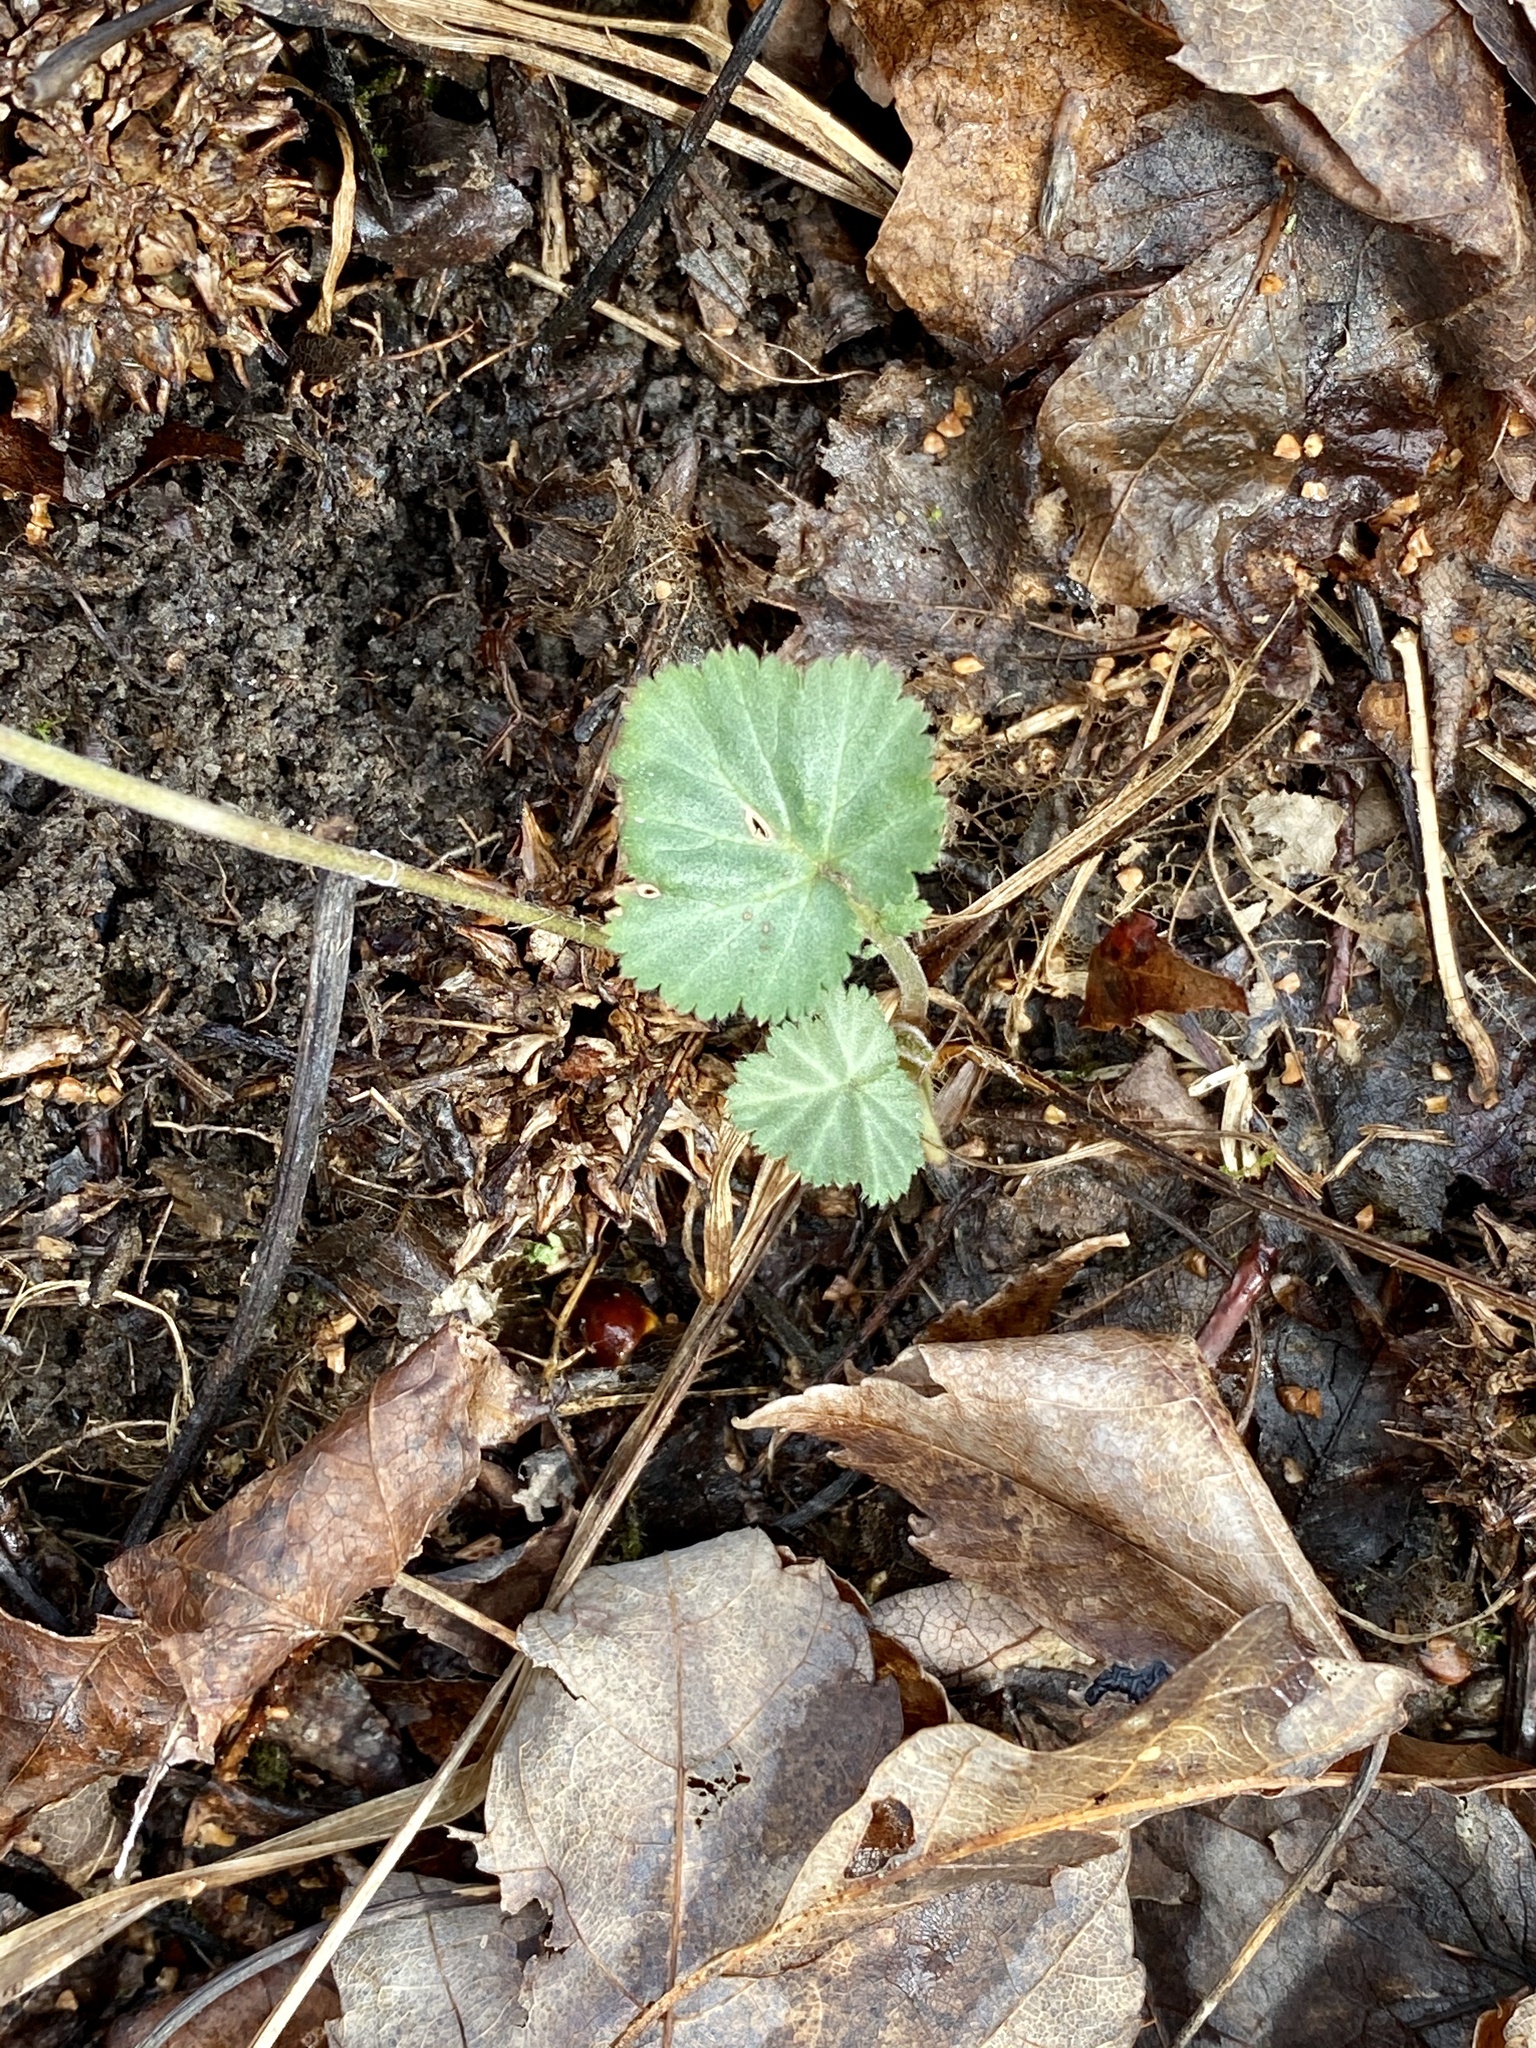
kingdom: Plantae
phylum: Tracheophyta
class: Magnoliopsida
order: Rosales
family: Rosaceae
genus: Geum
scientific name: Geum canadense
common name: White avens
